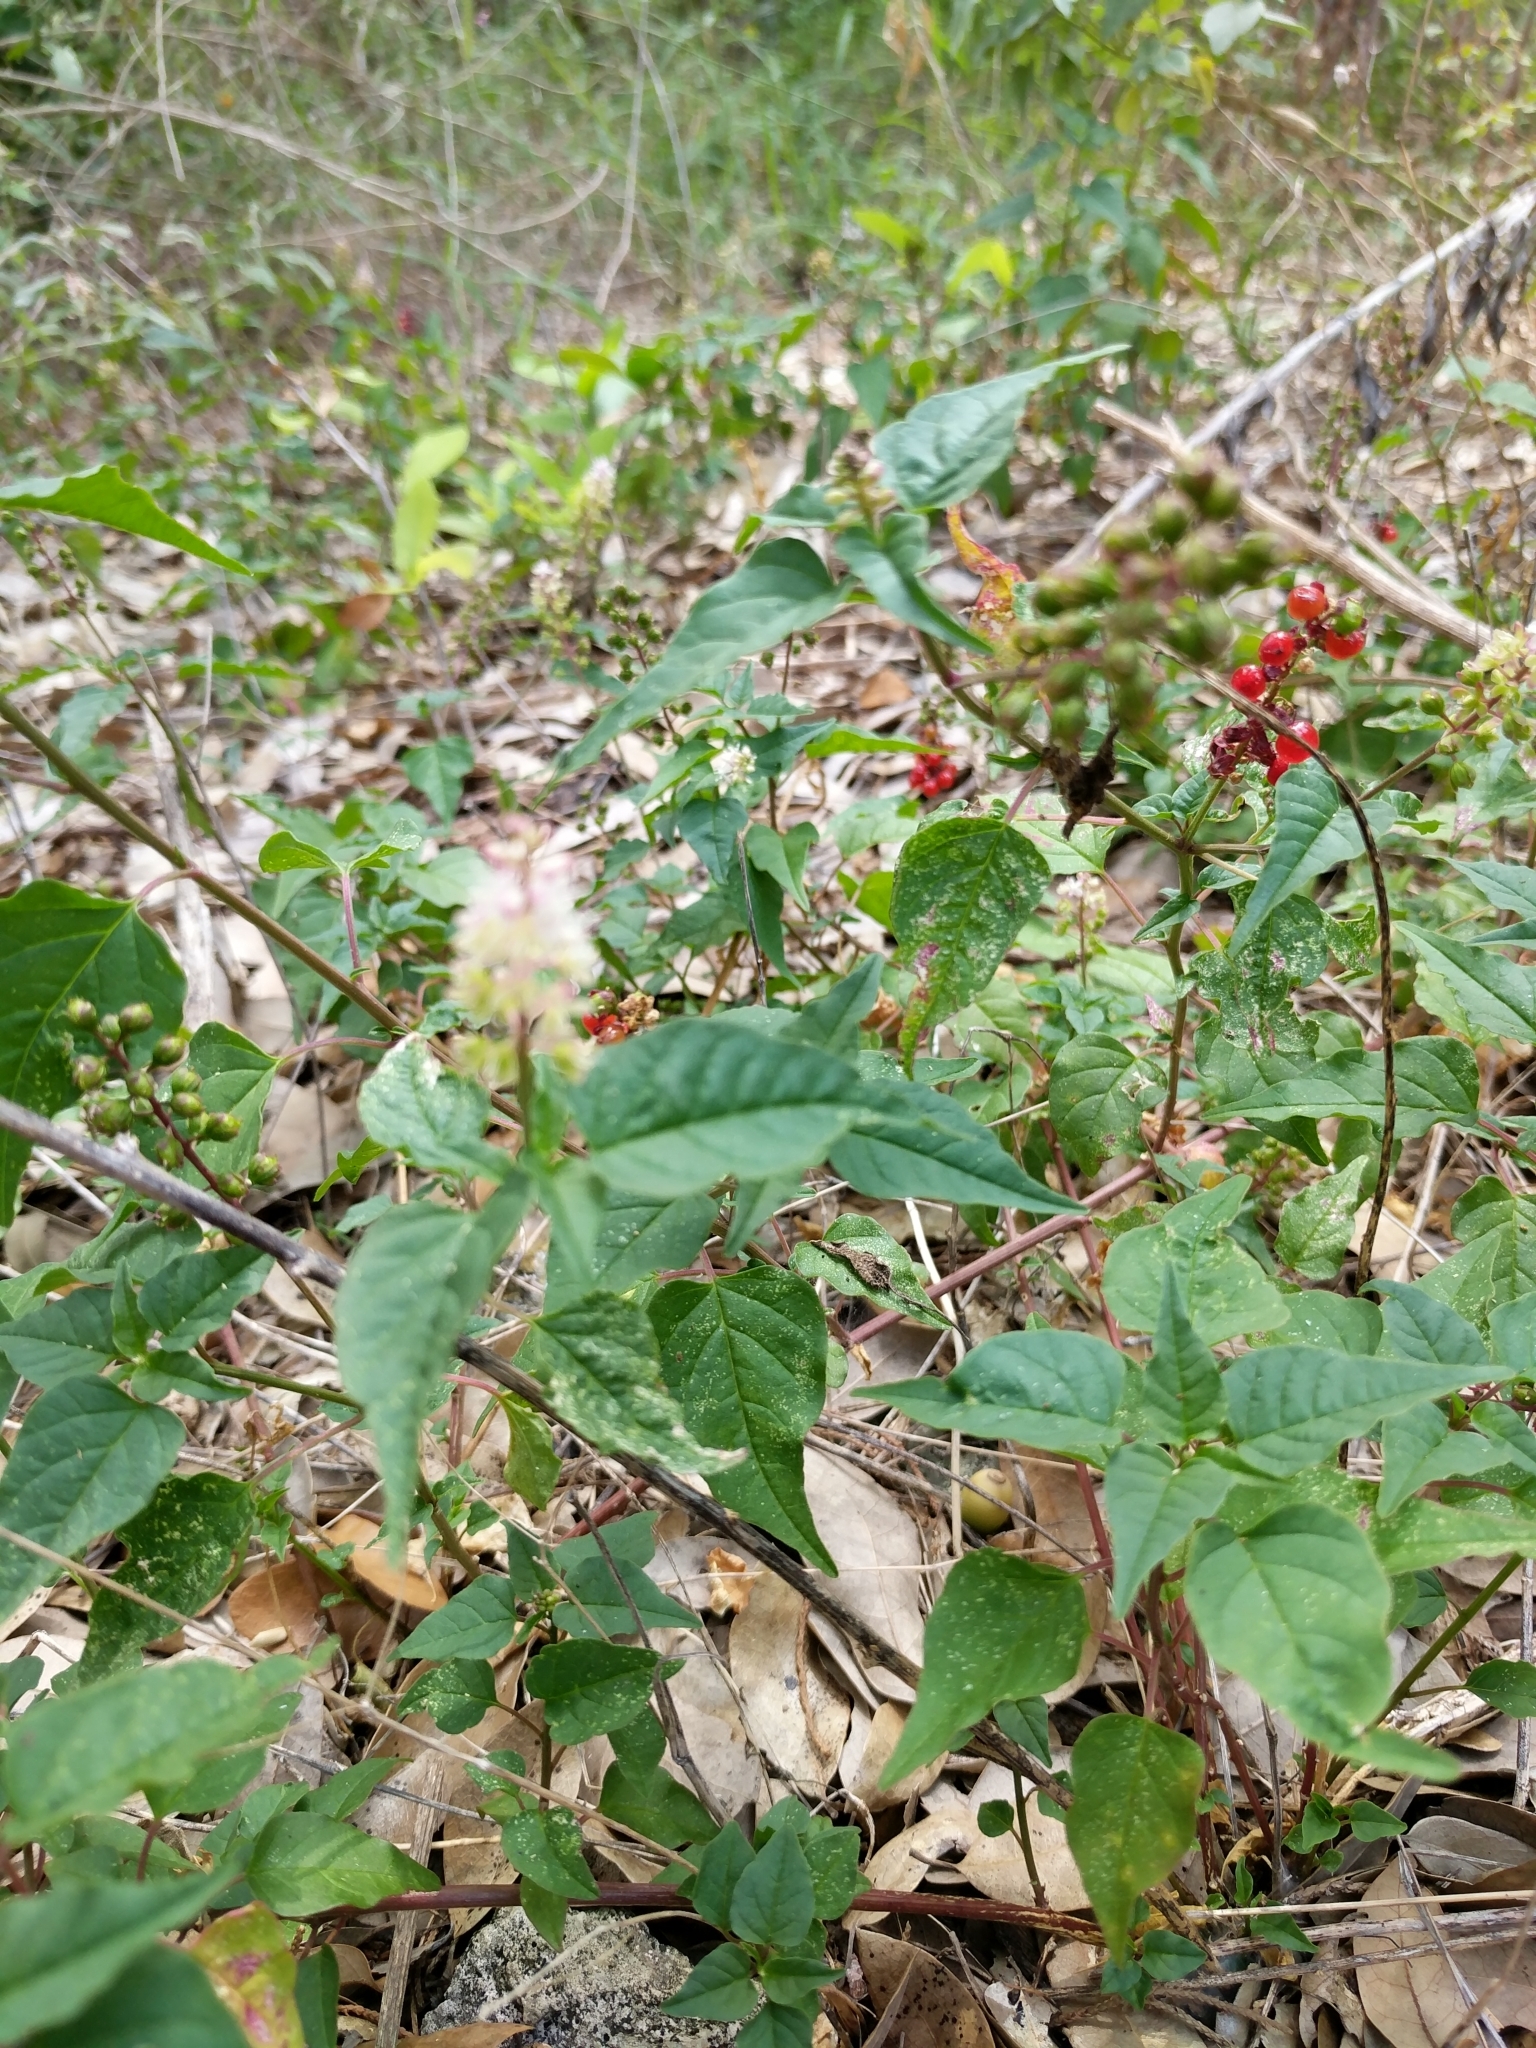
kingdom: Plantae
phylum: Tracheophyta
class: Magnoliopsida
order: Caryophyllales
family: Phytolaccaceae
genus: Rivina
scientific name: Rivina humilis
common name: Rougeplant
